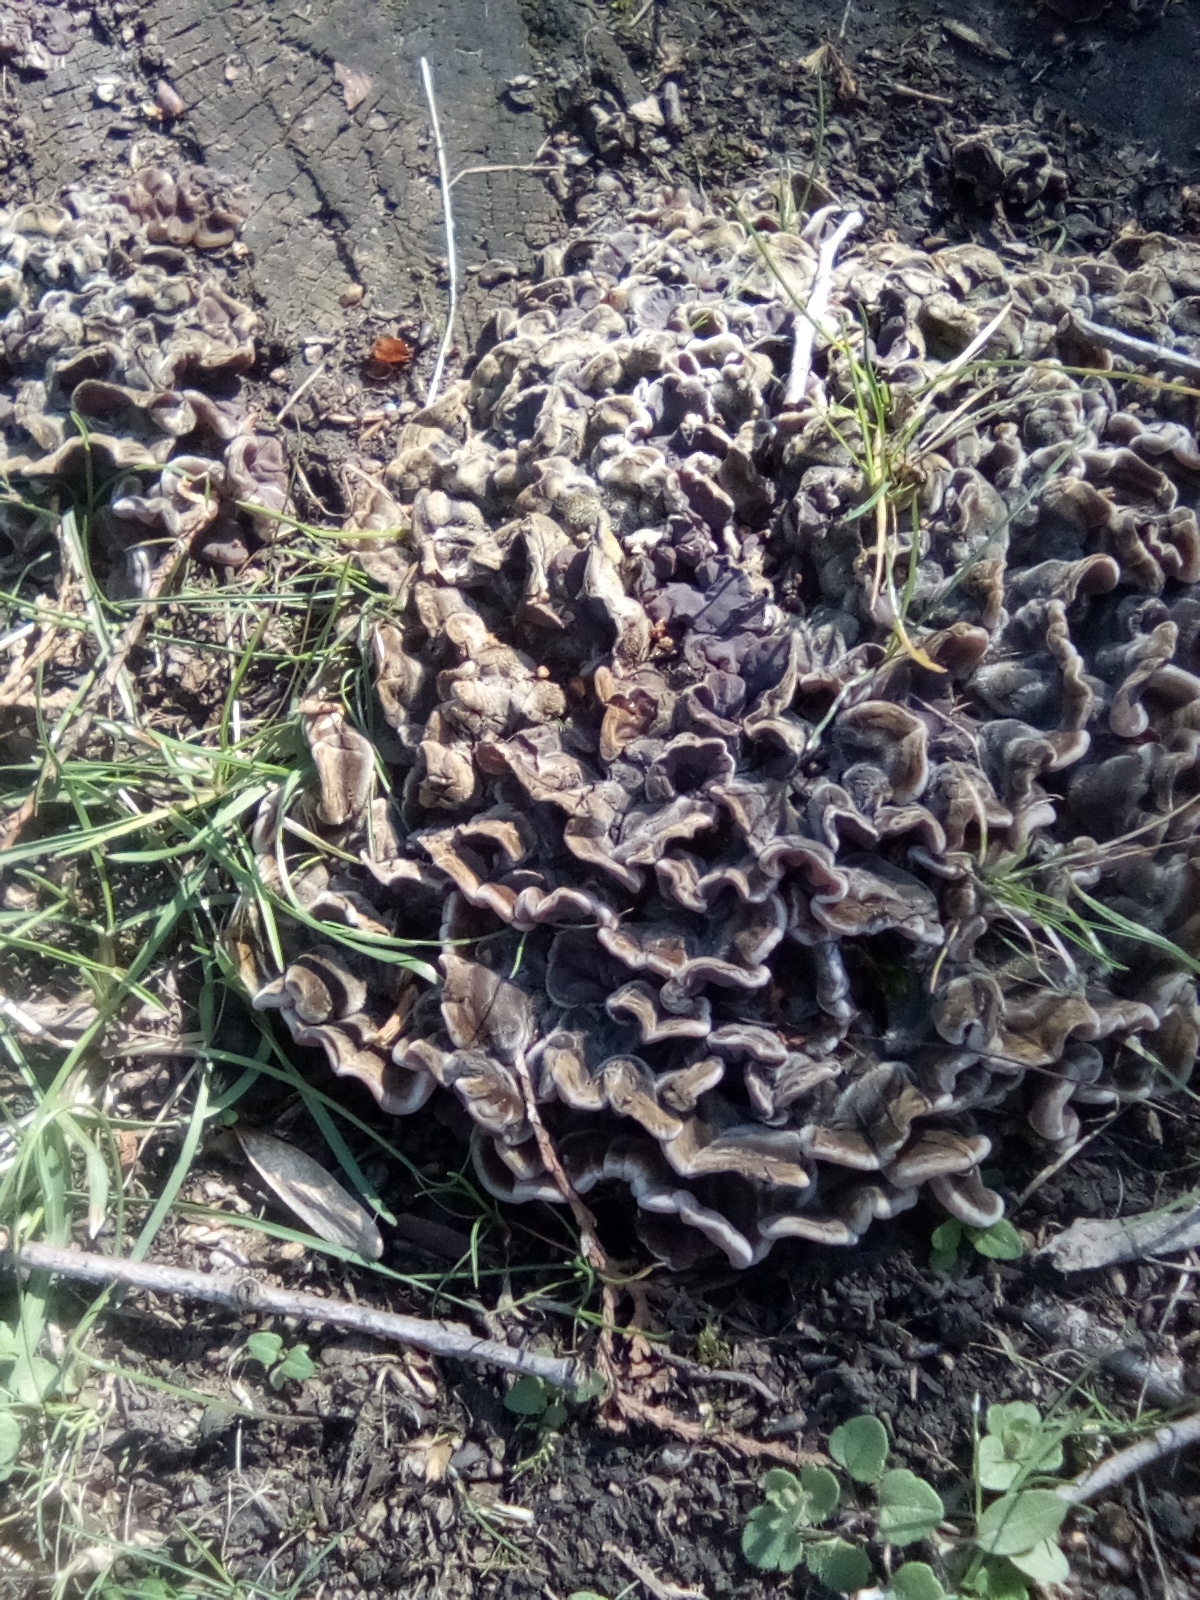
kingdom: Fungi
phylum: Basidiomycota
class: Agaricomycetes
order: Auriculariales
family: Auriculariaceae
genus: Auricularia
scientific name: Auricularia mesenterica
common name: Tripe fungus
